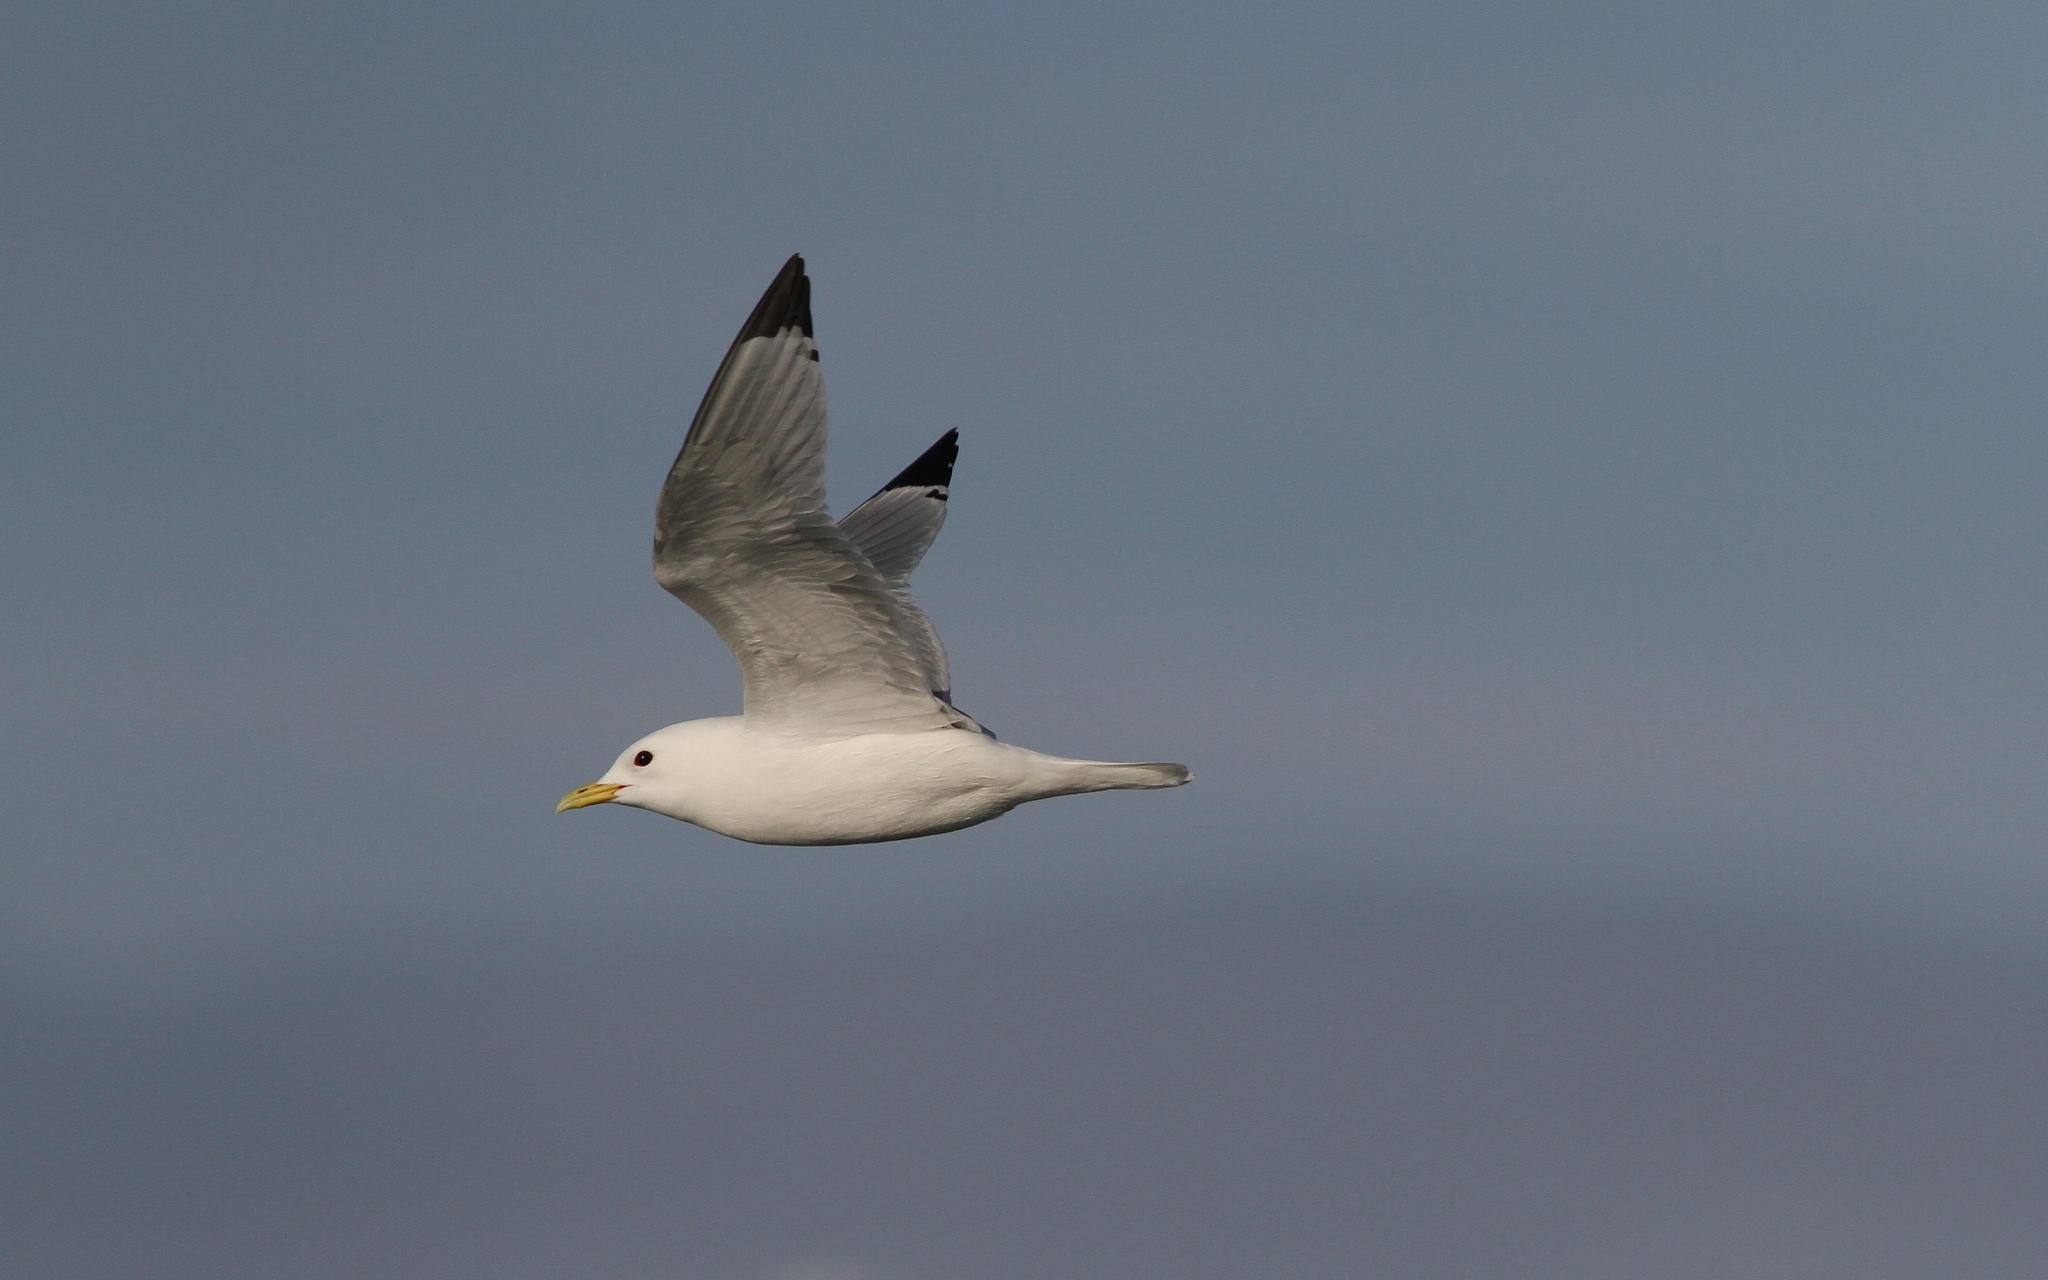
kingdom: Animalia
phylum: Chordata
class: Aves
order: Charadriiformes
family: Laridae
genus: Rissa
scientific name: Rissa tridactyla
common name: Black-legged kittiwake
